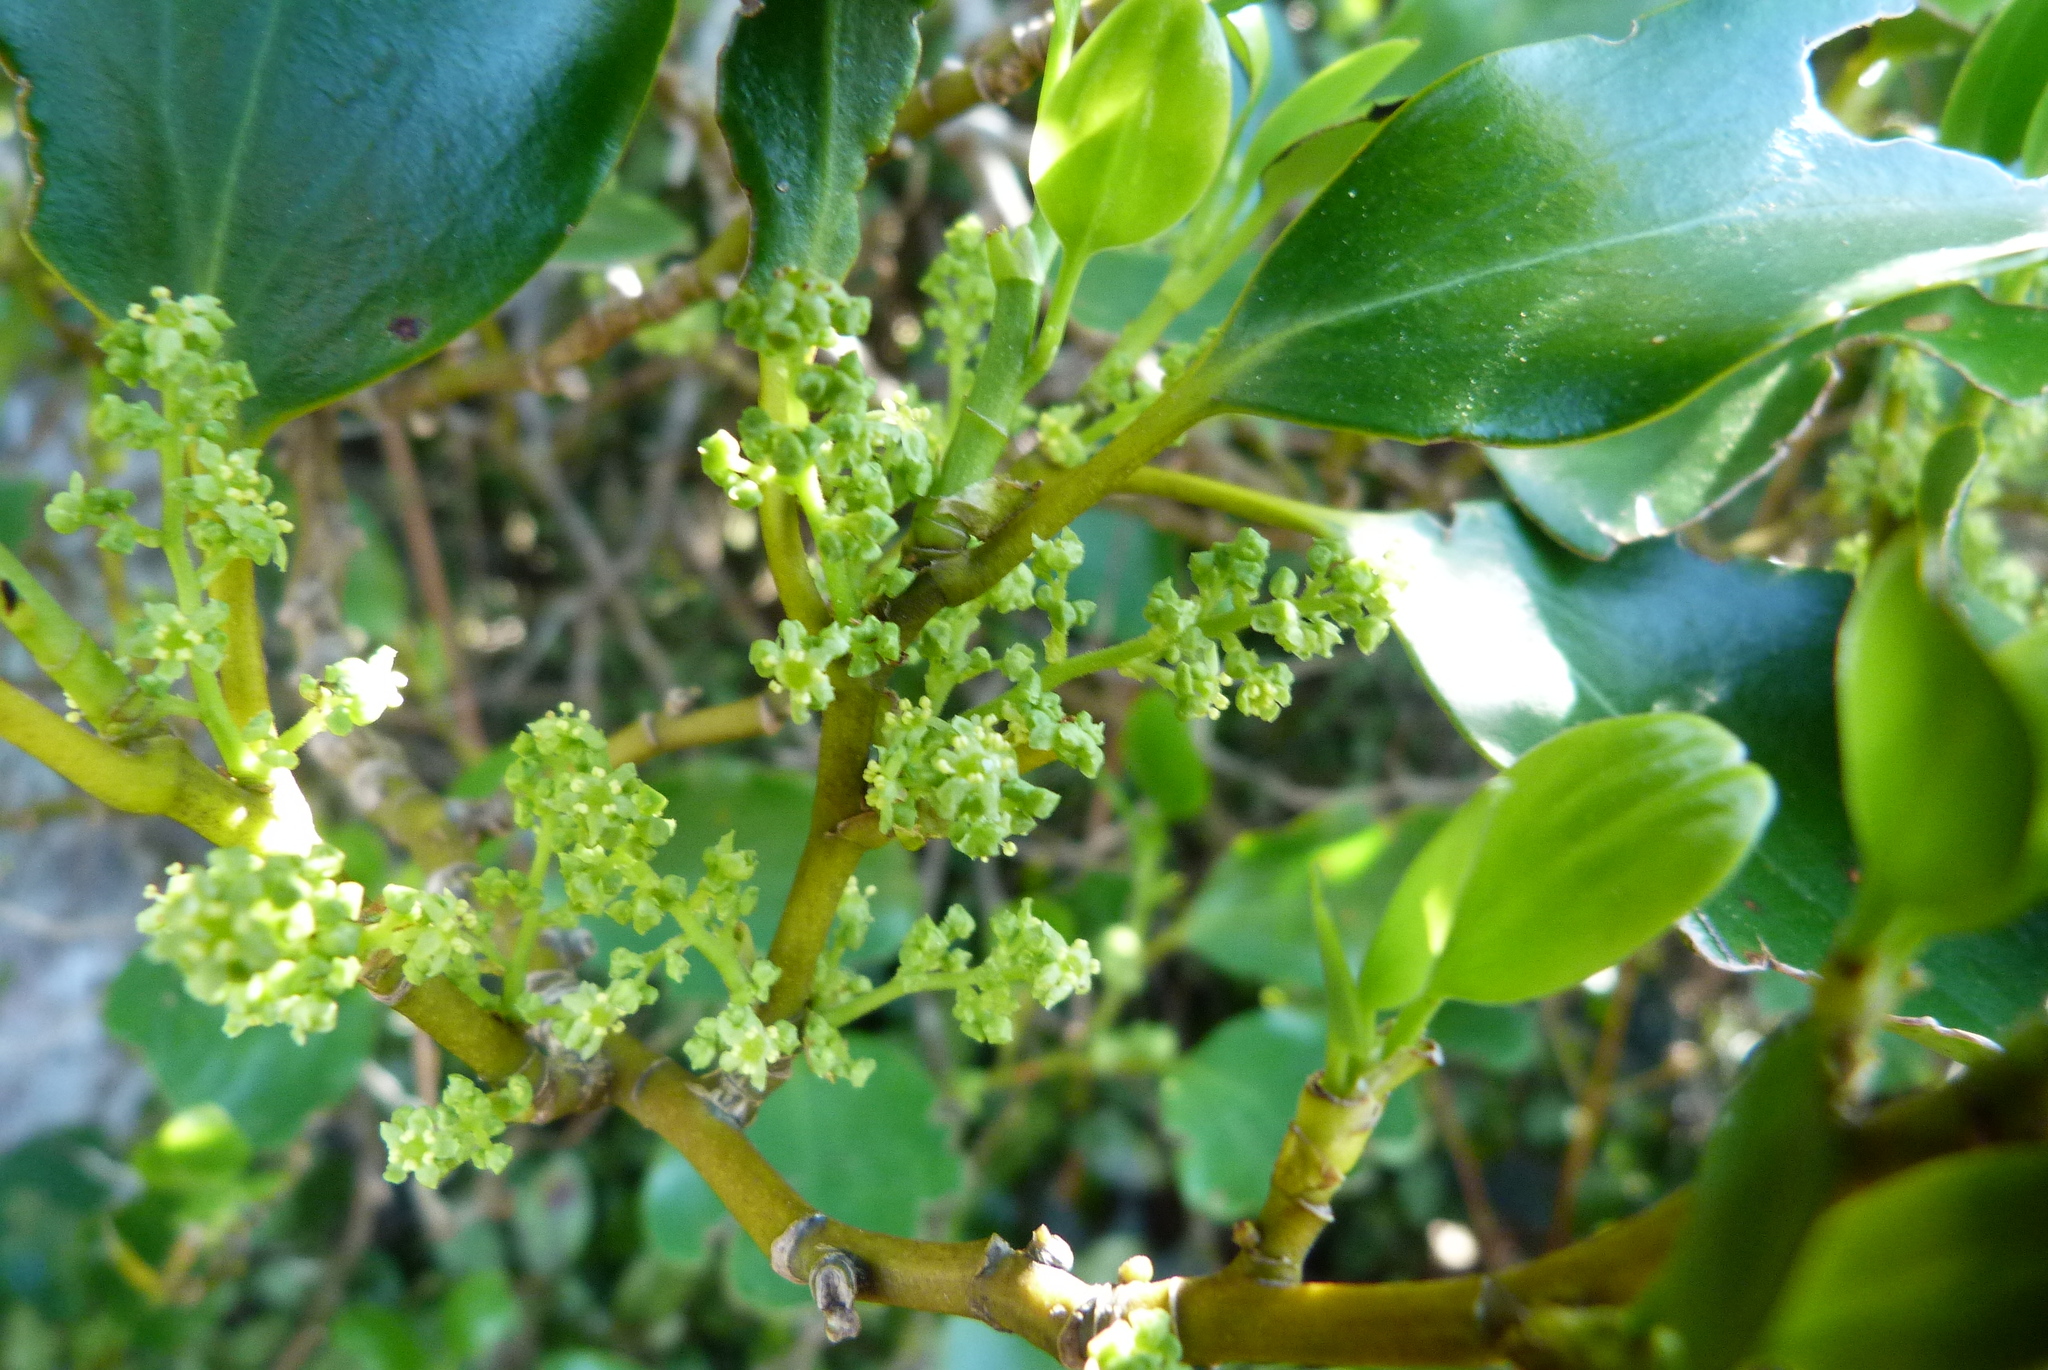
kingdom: Plantae
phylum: Tracheophyta
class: Magnoliopsida
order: Apiales
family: Griseliniaceae
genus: Griselinia
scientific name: Griselinia littoralis
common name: New zealand broadleaf
